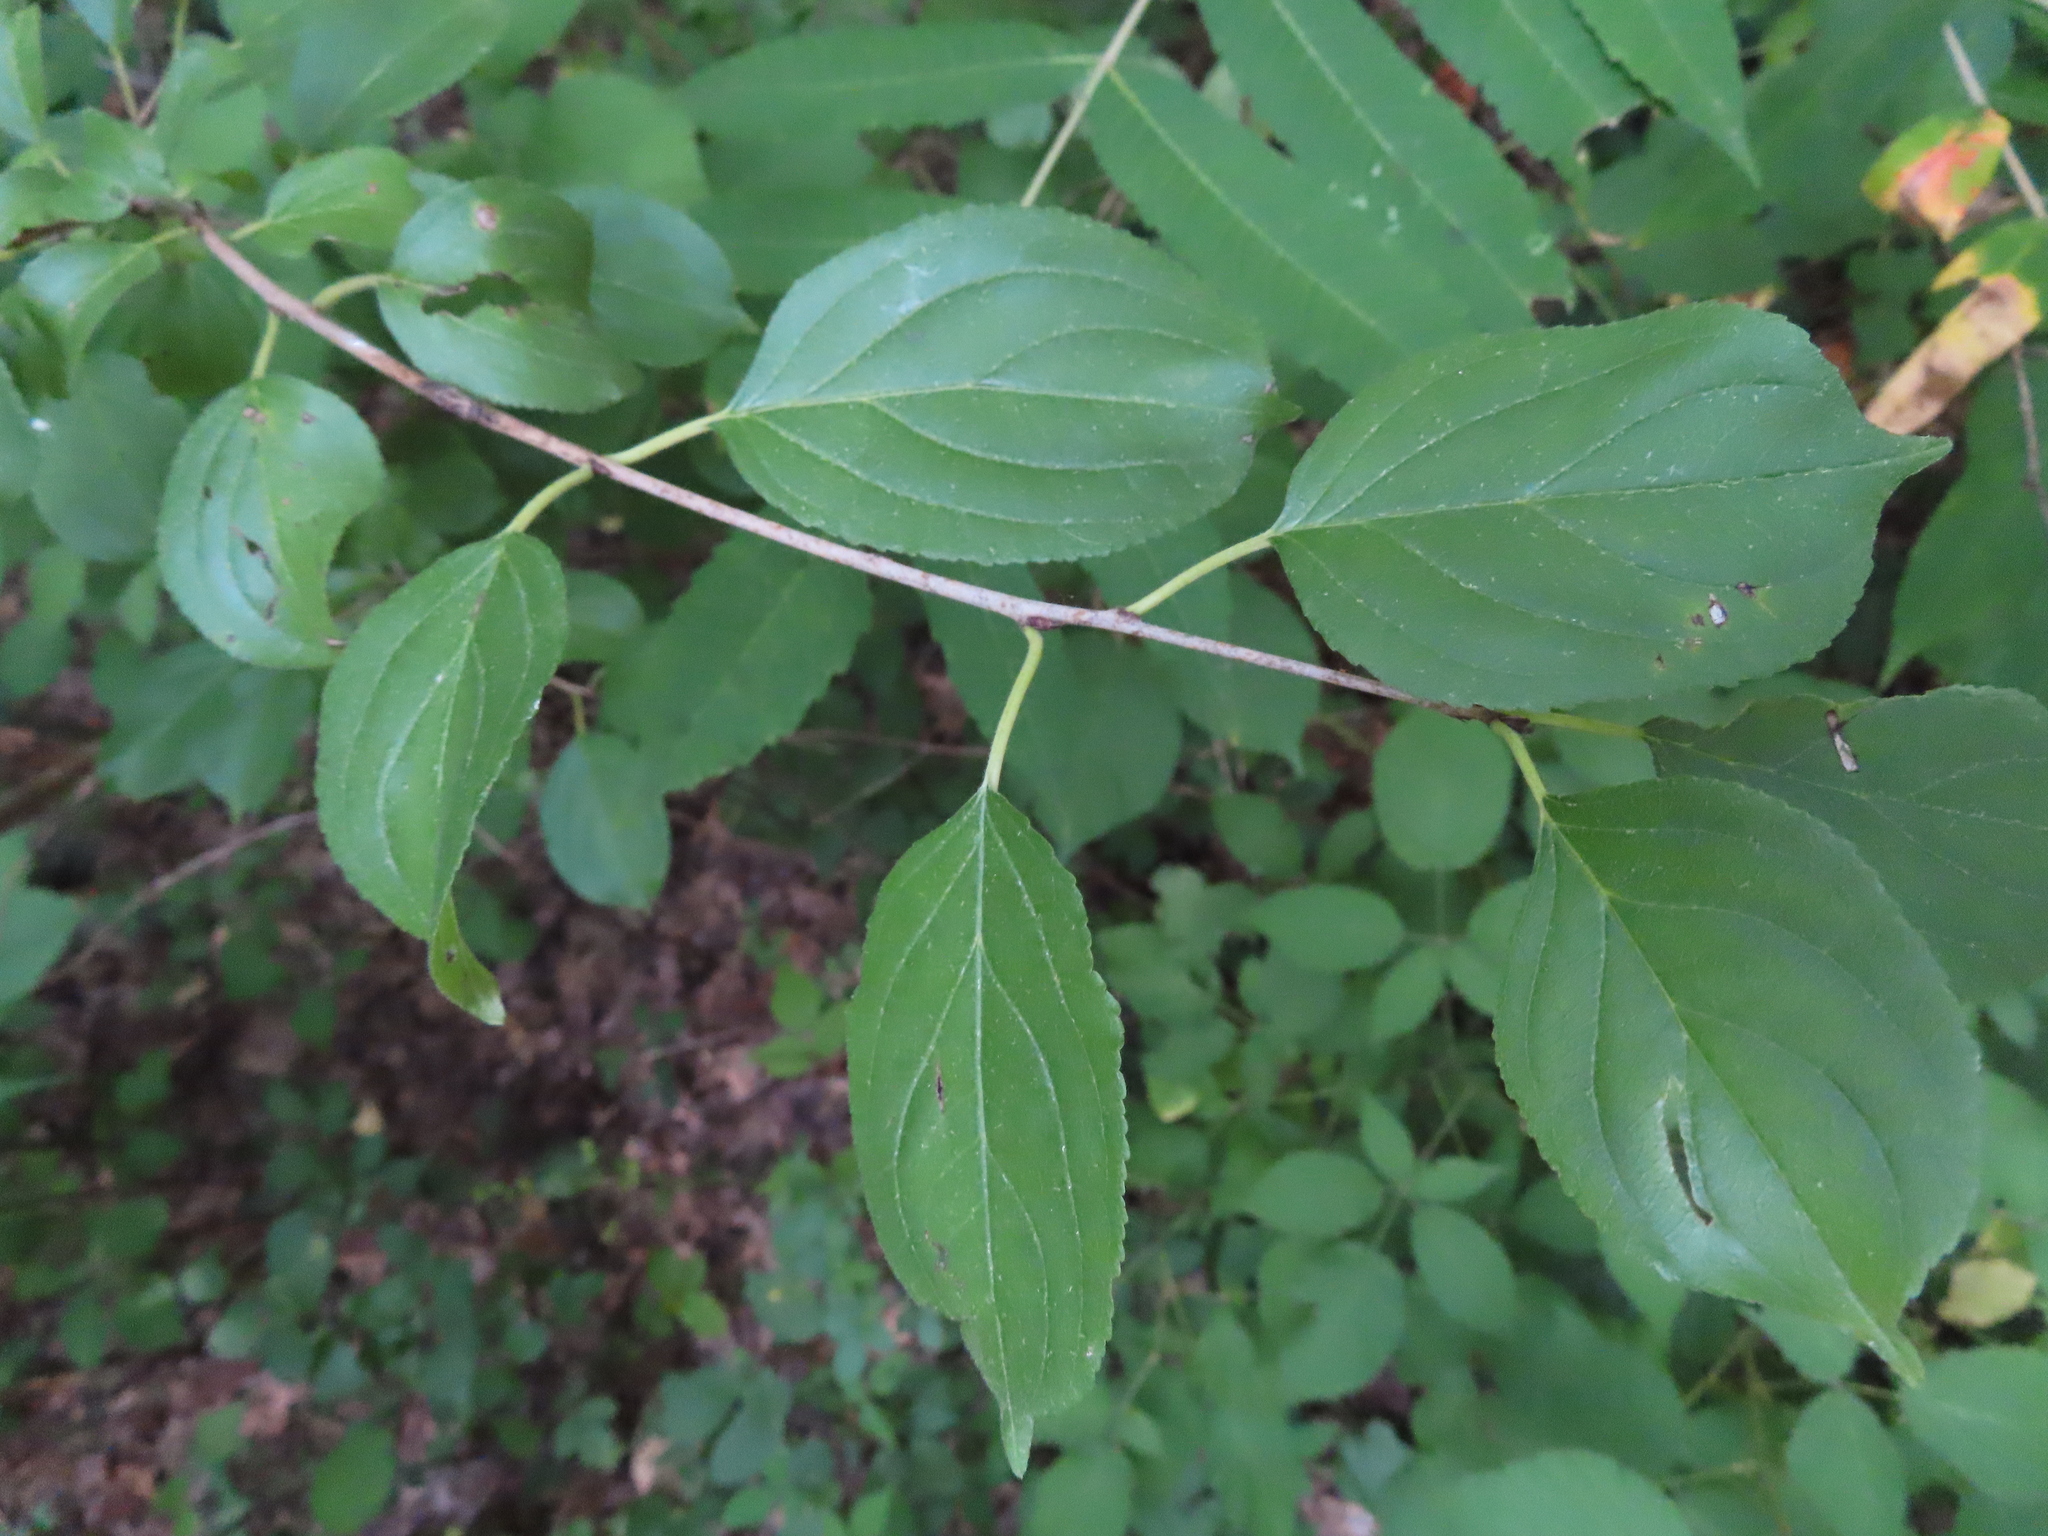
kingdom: Plantae
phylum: Tracheophyta
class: Magnoliopsida
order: Rosales
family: Rhamnaceae
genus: Rhamnus
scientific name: Rhamnus cathartica
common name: Common buckthorn
